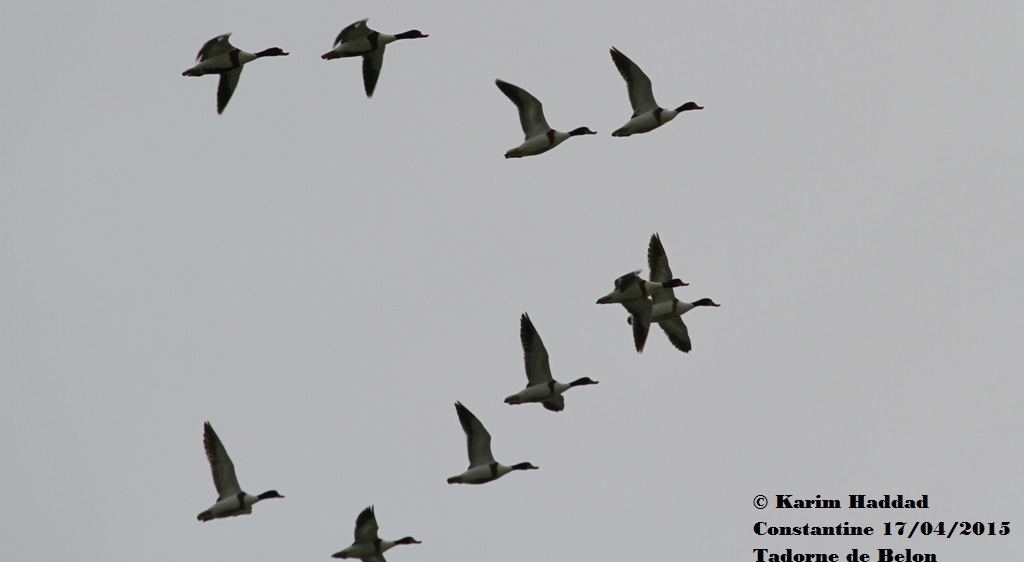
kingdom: Animalia
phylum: Chordata
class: Aves
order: Anseriformes
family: Anatidae
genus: Tadorna
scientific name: Tadorna tadorna
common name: Common shelduck
